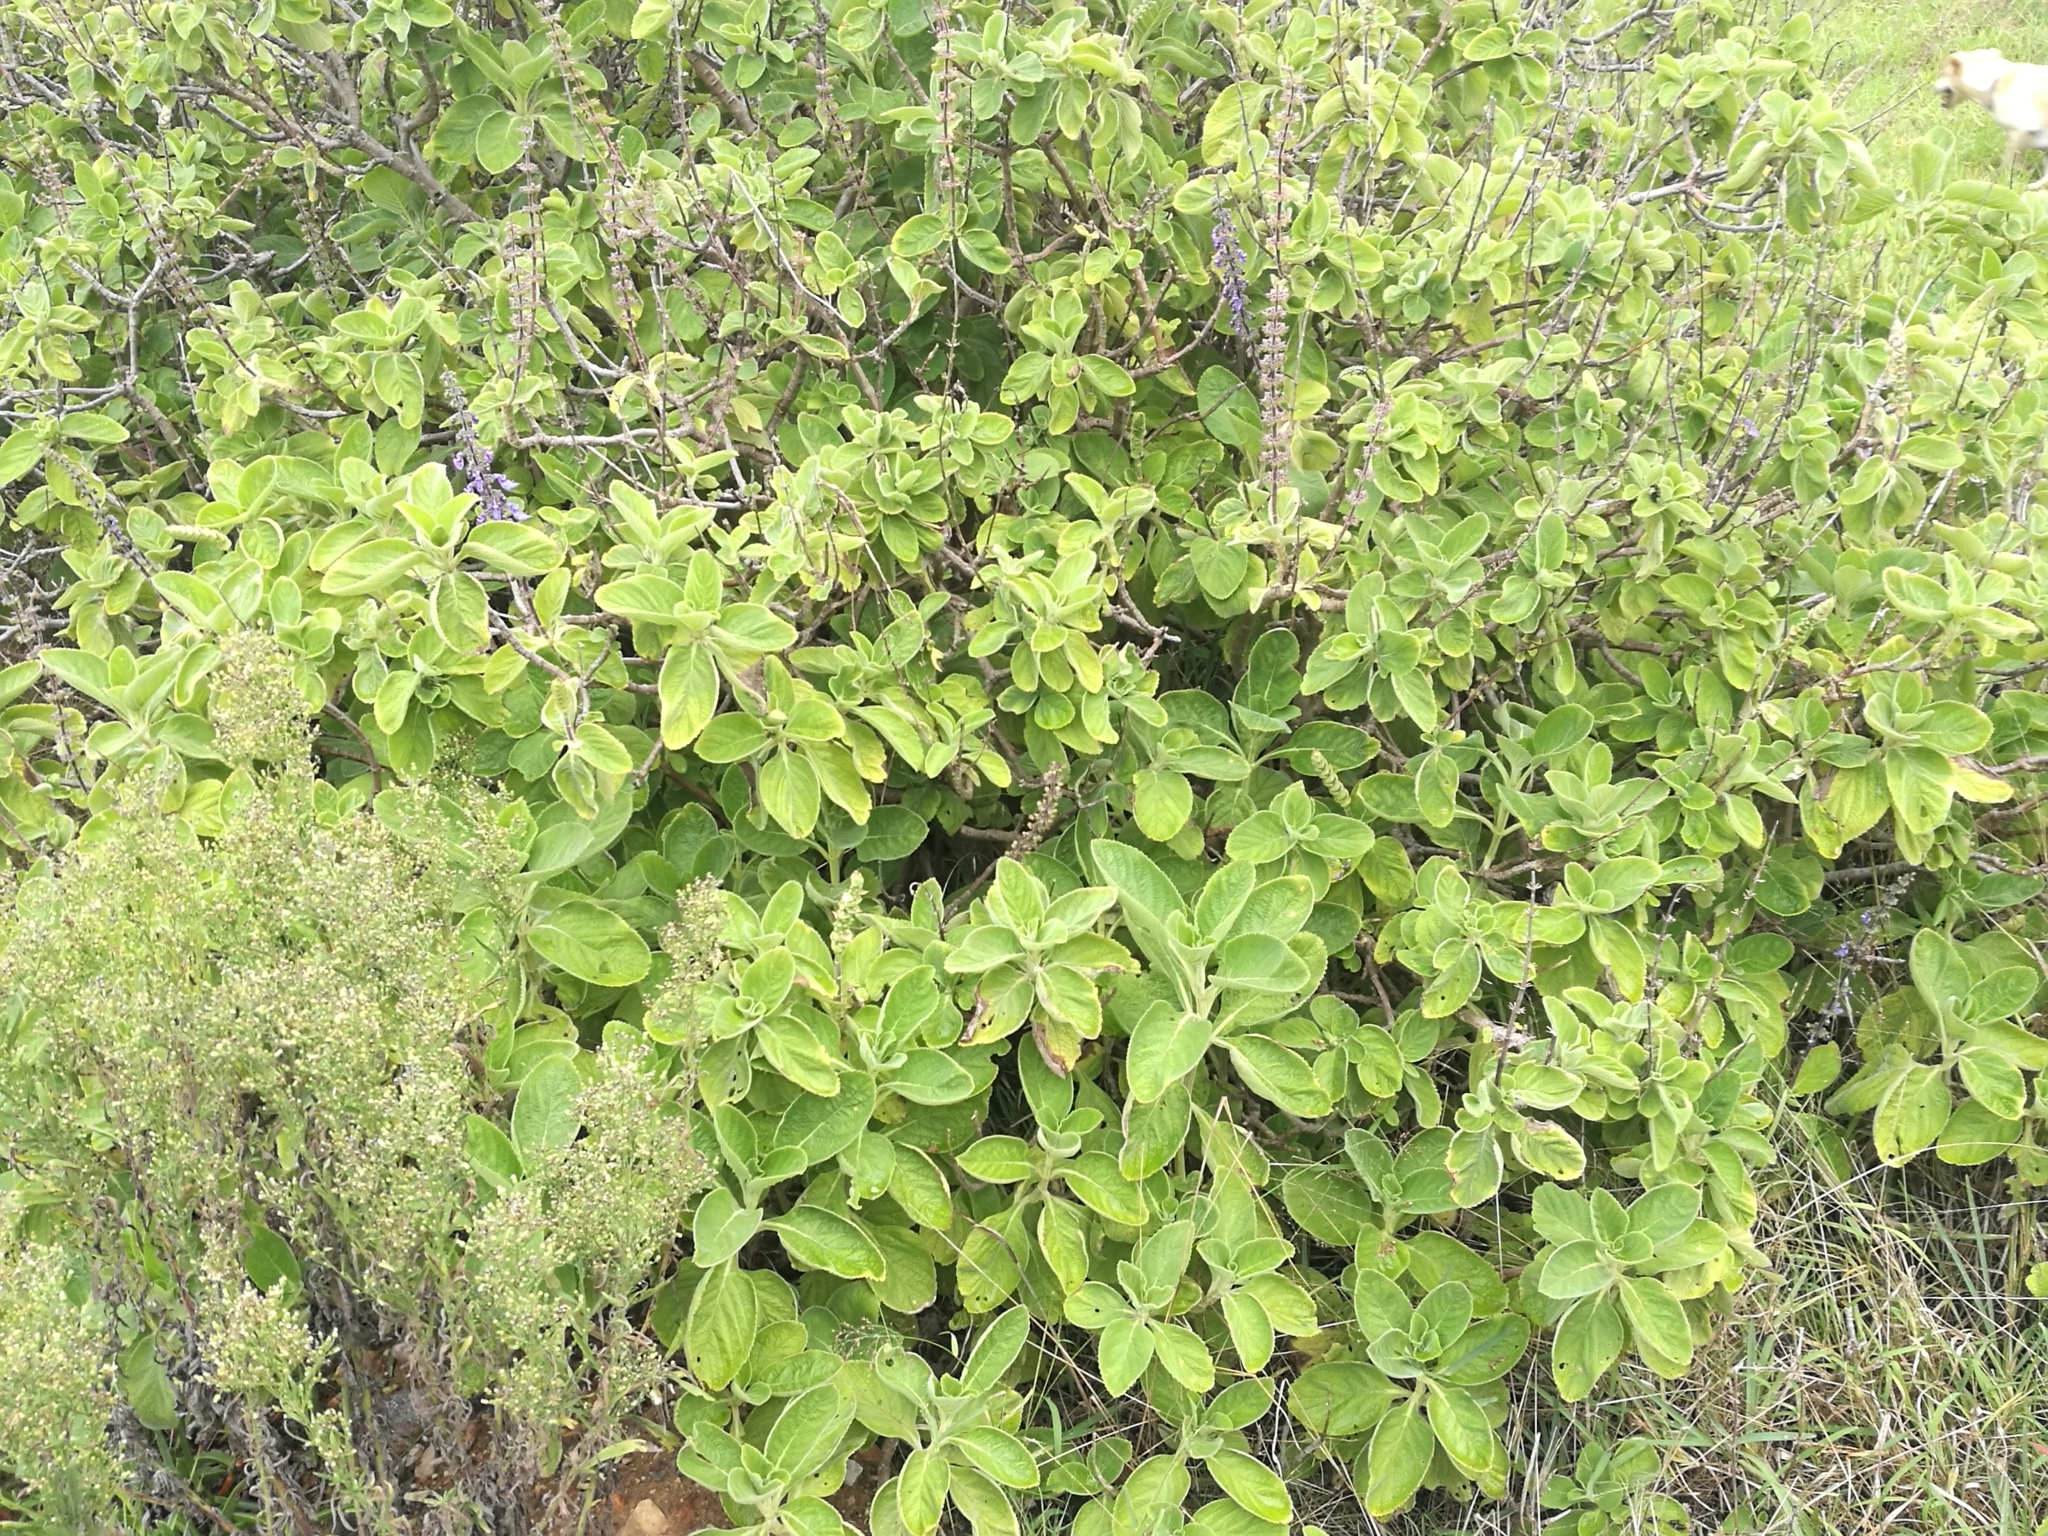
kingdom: Plantae
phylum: Tracheophyta
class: Magnoliopsida
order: Lamiales
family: Lamiaceae
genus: Coleus
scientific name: Coleus barbatus
